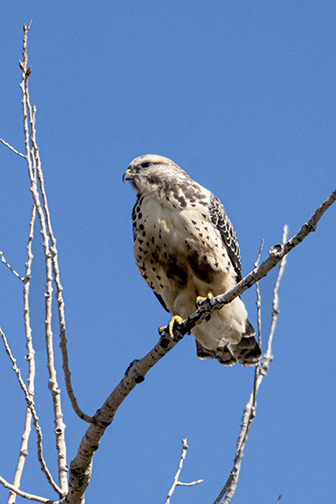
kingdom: Animalia
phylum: Chordata
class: Aves
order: Accipitriformes
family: Accipitridae
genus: Buteo
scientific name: Buteo swainsoni
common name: Swainson's hawk
